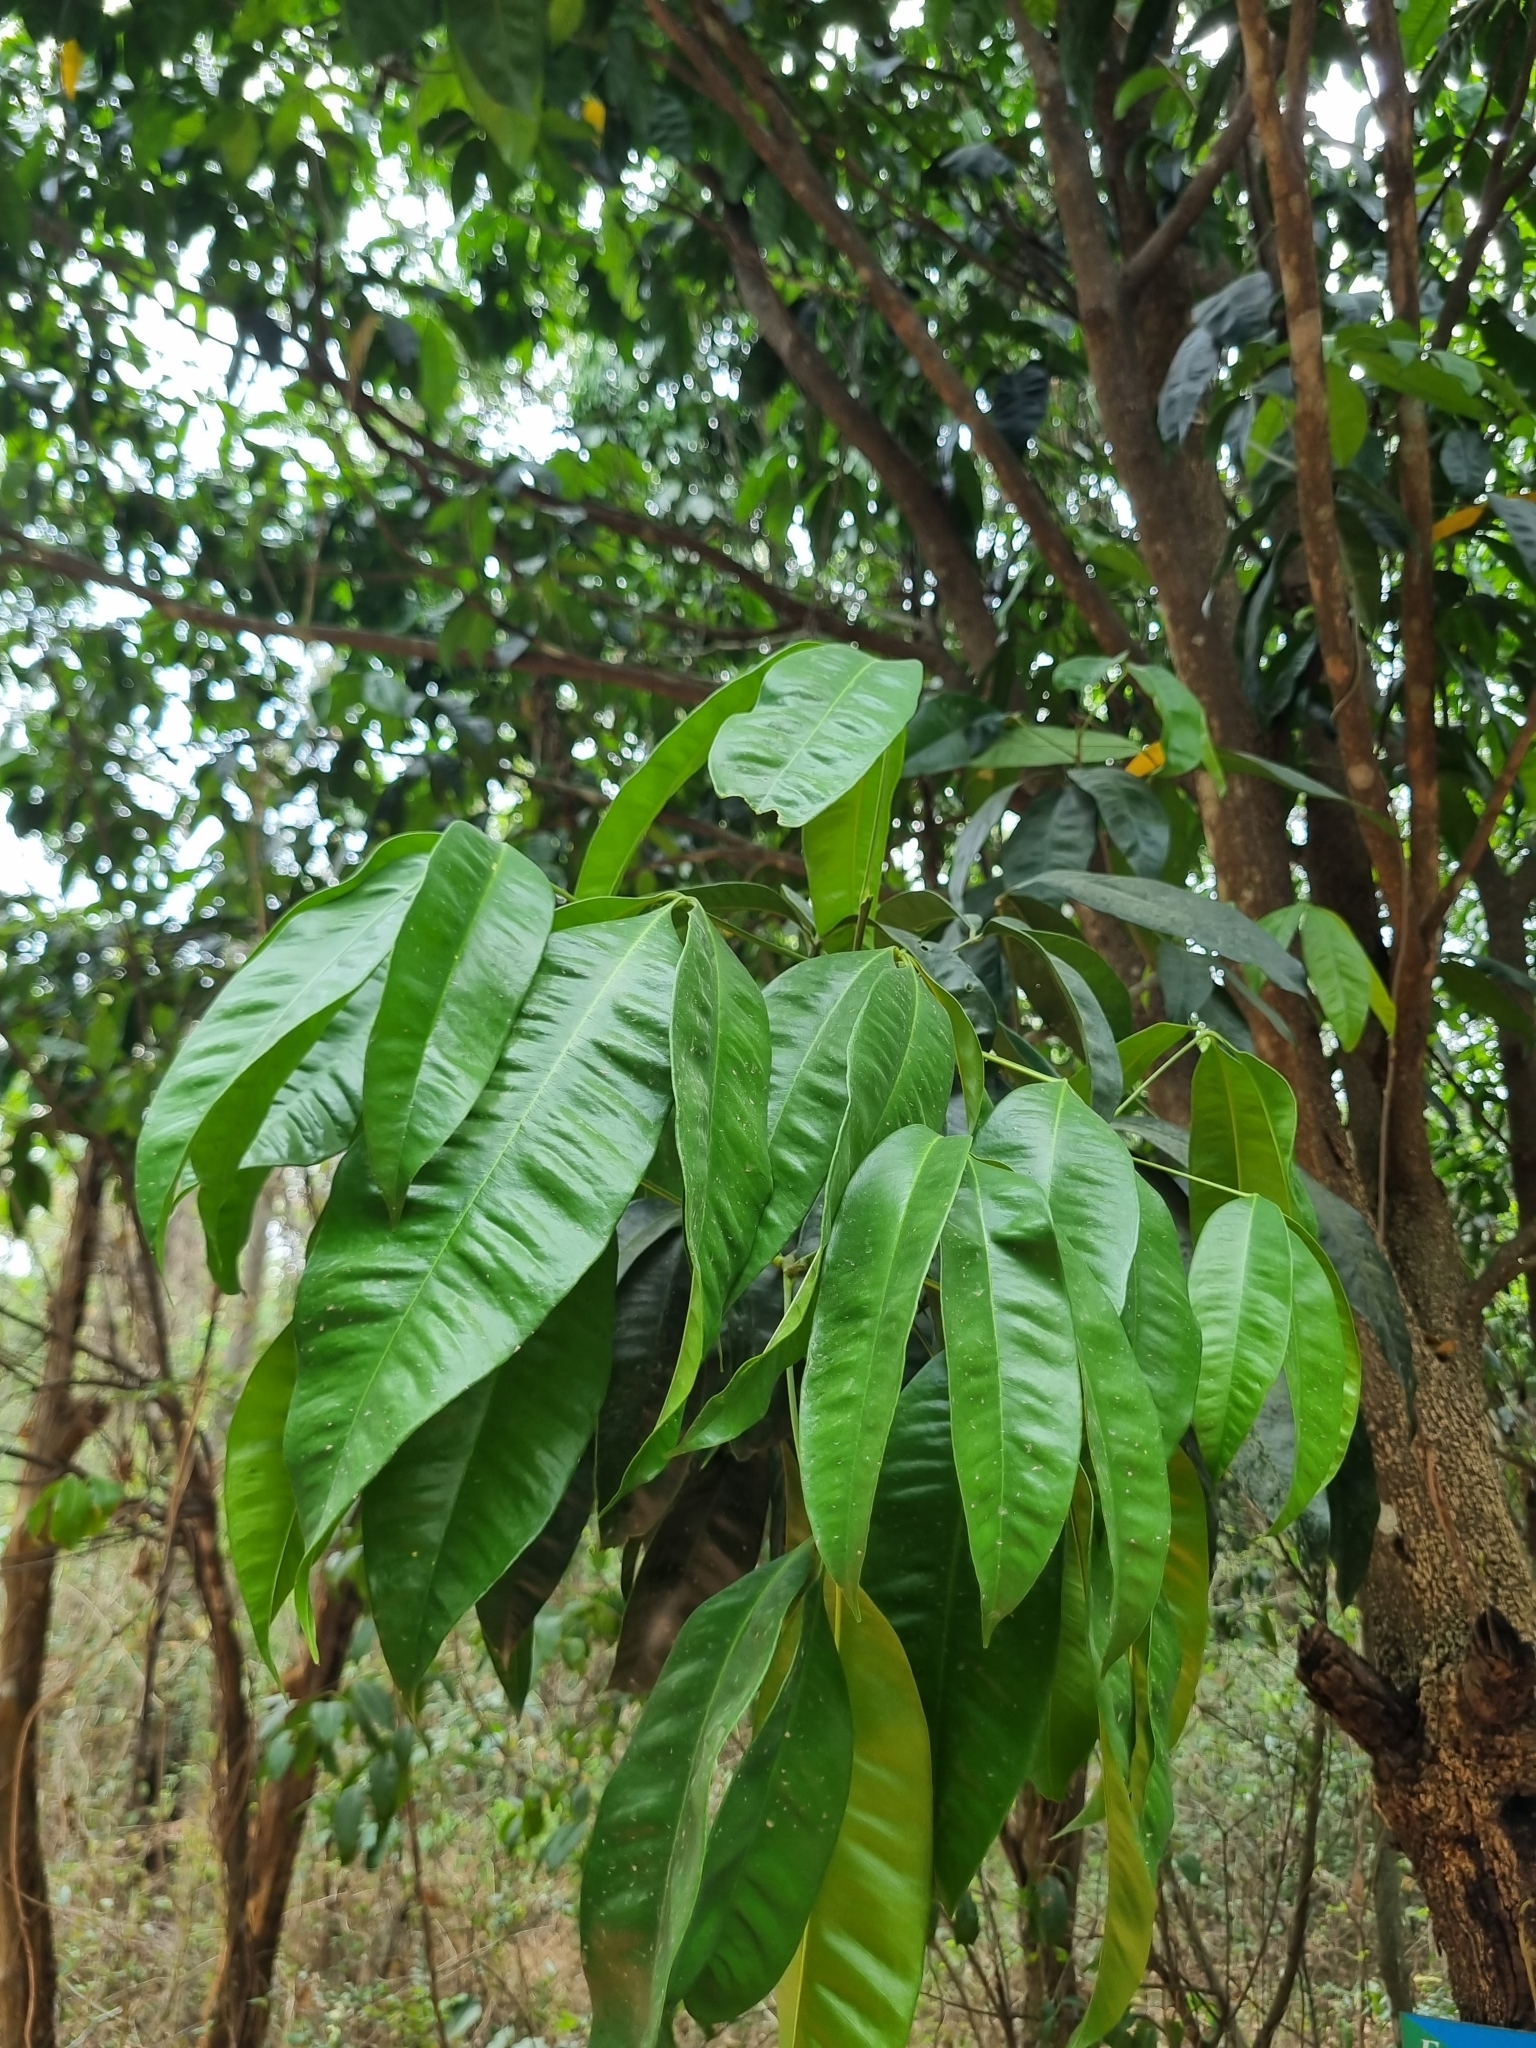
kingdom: Plantae
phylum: Tracheophyta
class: Magnoliopsida
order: Sapindales
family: Rutaceae
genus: Melicope
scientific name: Melicope lunu-ankenda
